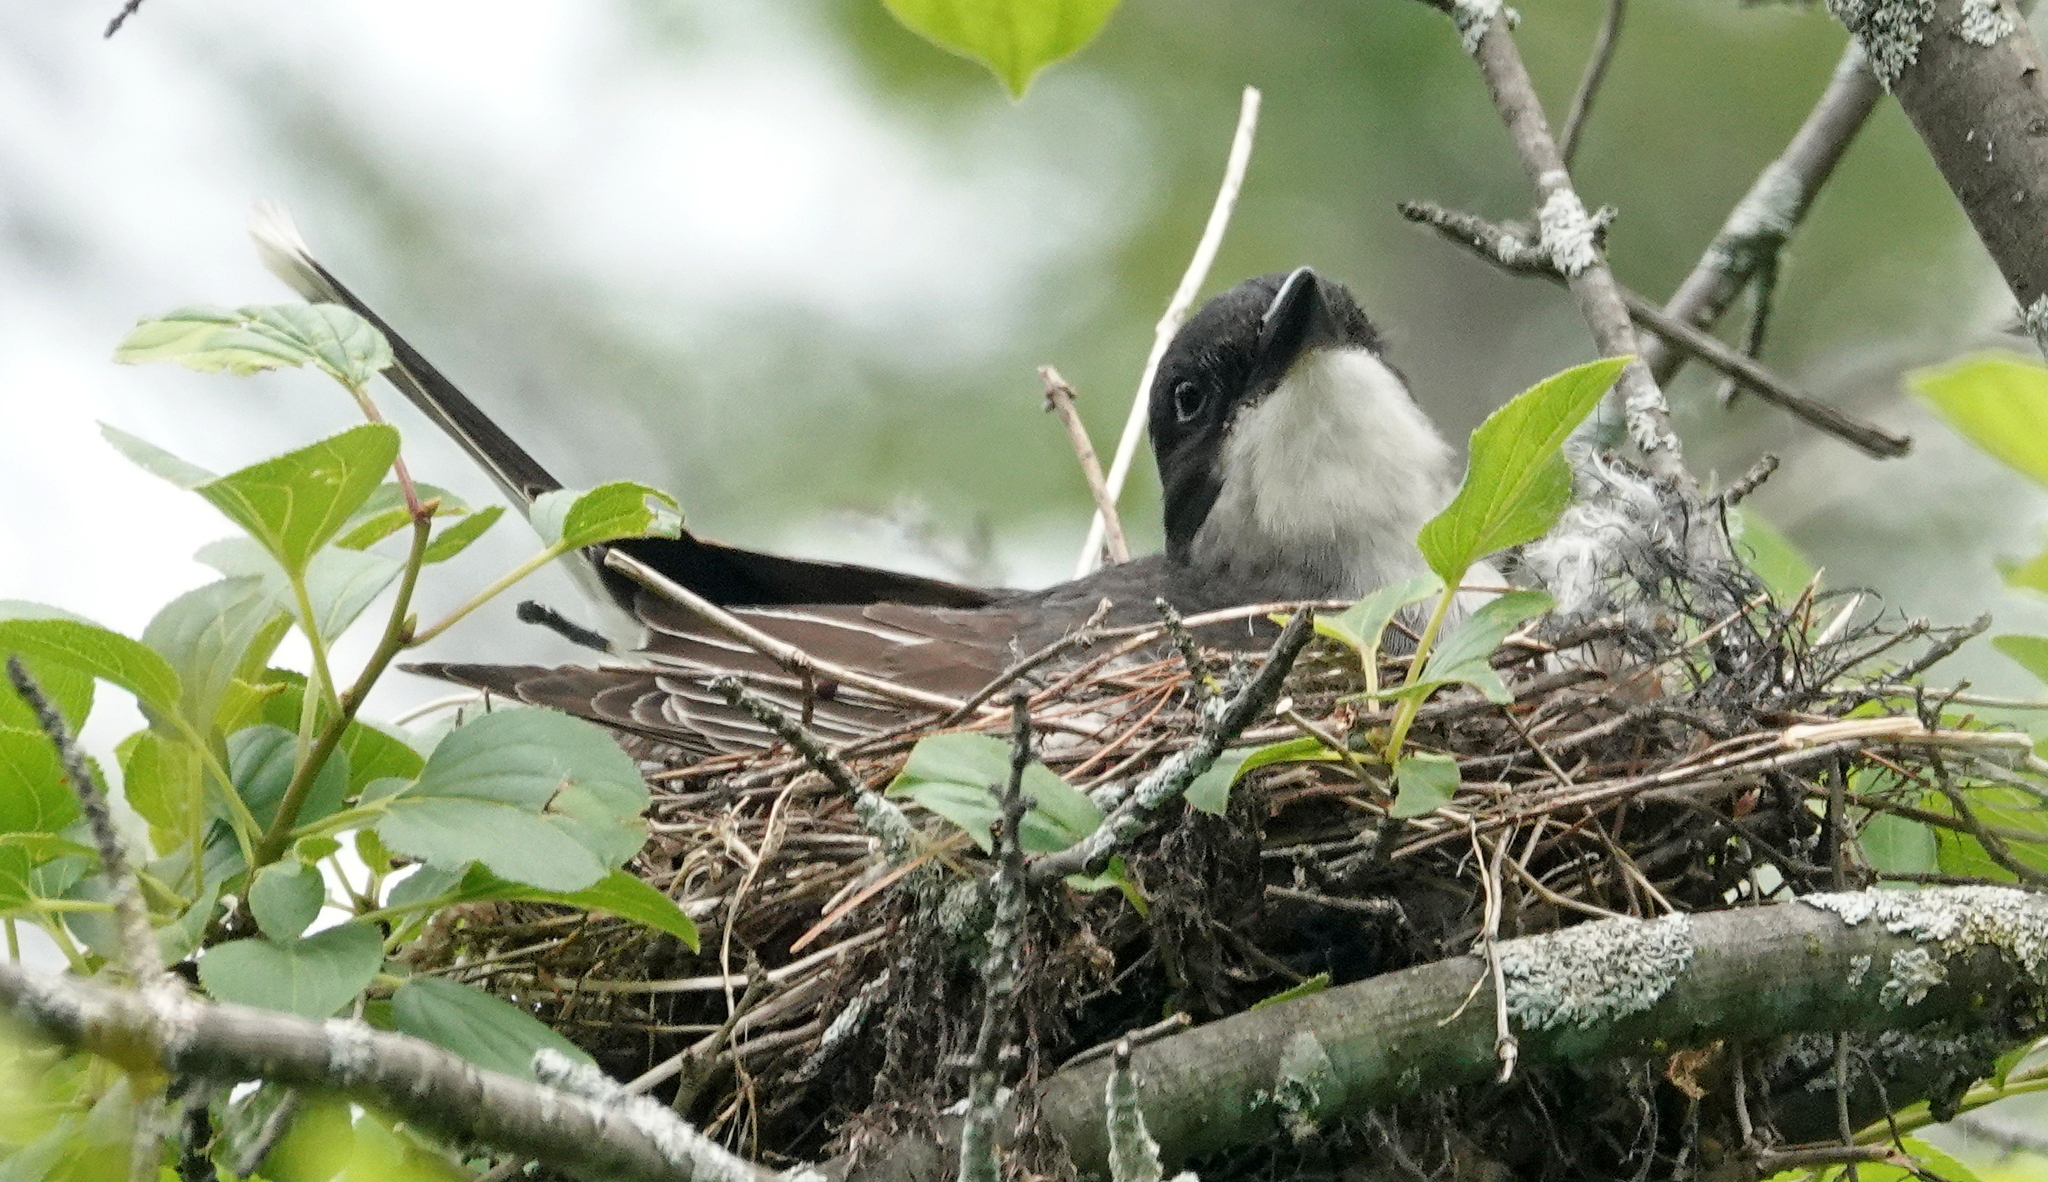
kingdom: Animalia
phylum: Chordata
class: Aves
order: Passeriformes
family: Tyrannidae
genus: Tyrannus
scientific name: Tyrannus tyrannus
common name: Eastern kingbird
